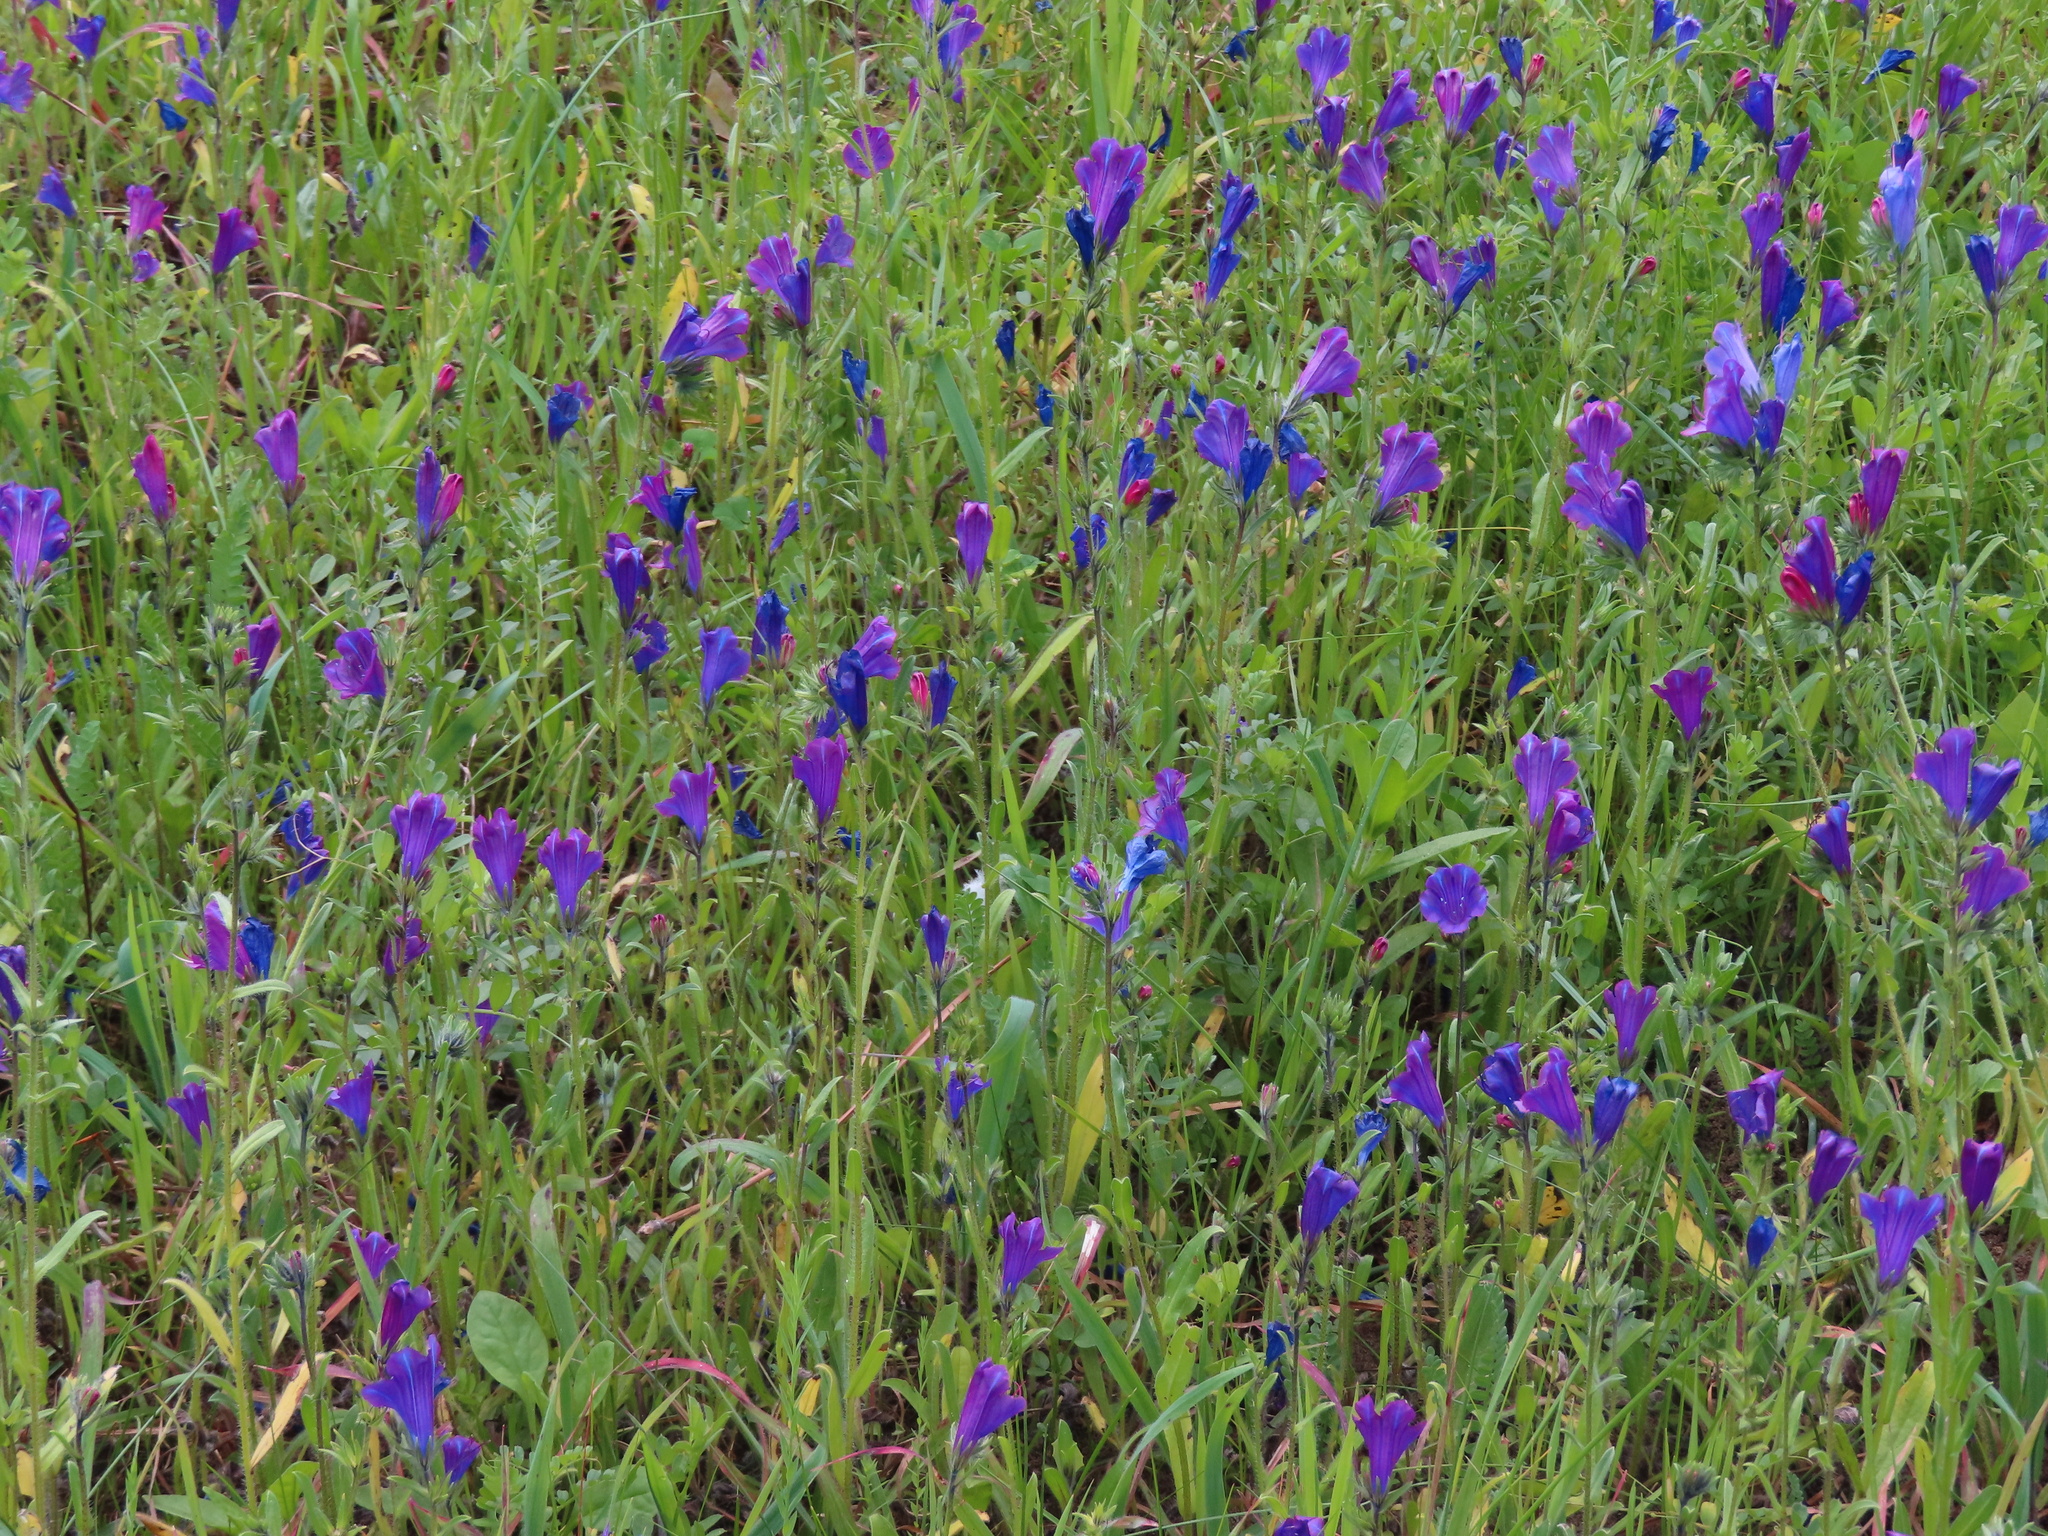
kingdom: Plantae
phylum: Tracheophyta
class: Magnoliopsida
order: Boraginales
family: Boraginaceae
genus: Echium
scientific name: Echium plantagineum
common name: Purple viper's-bugloss
